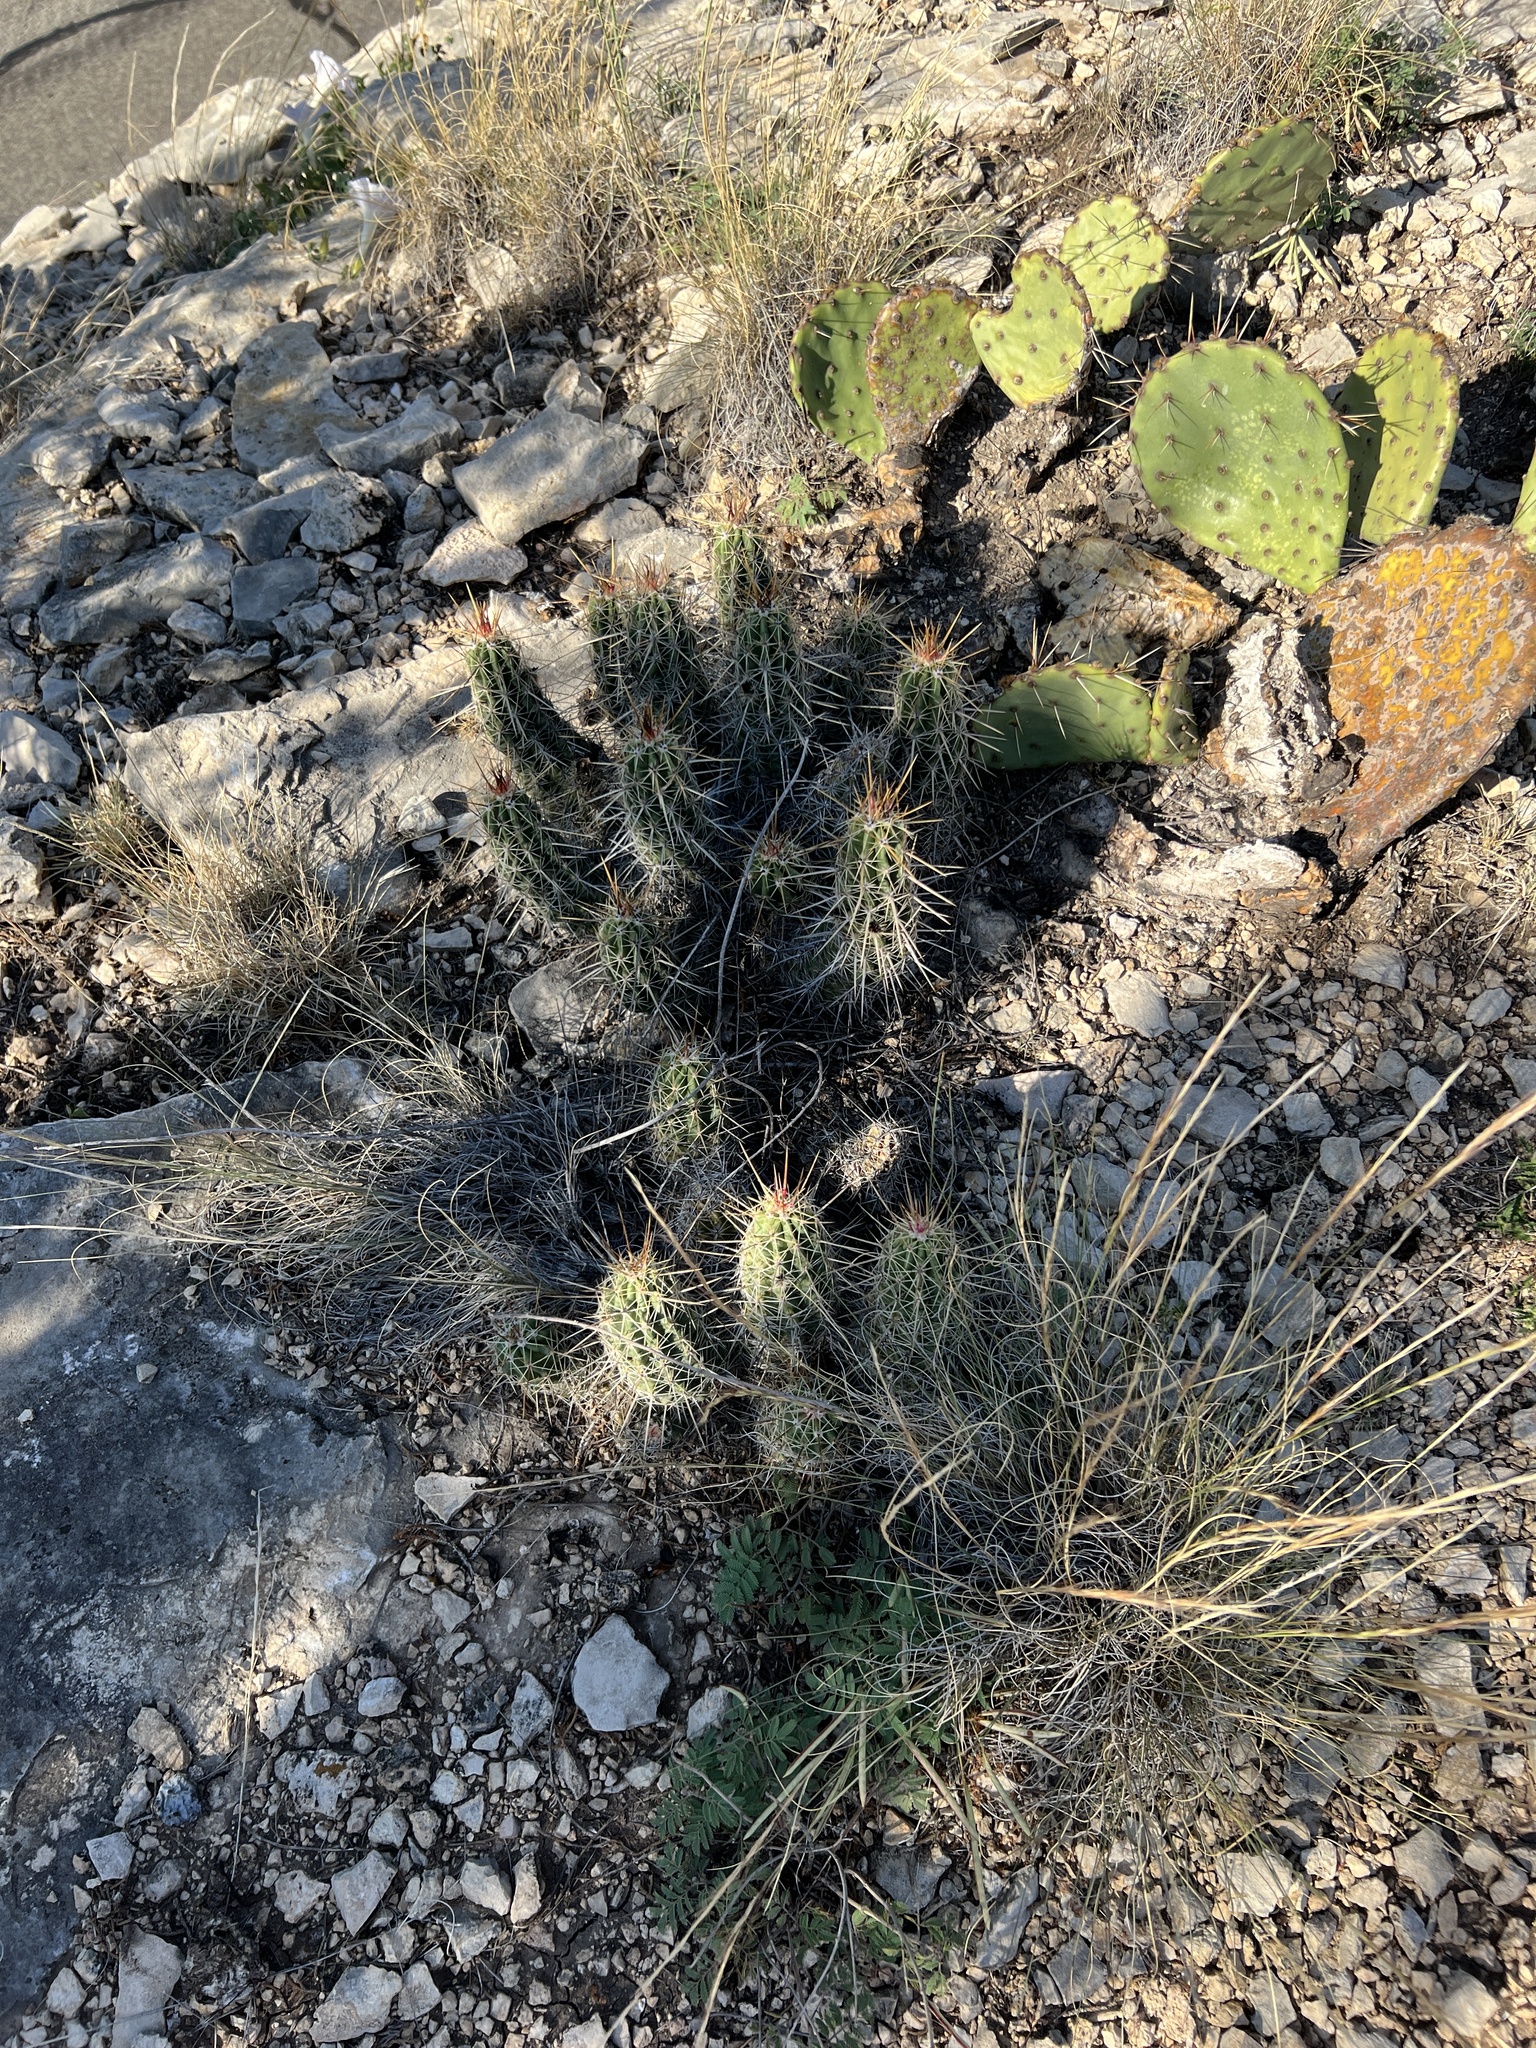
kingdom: Plantae
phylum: Tracheophyta
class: Magnoliopsida
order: Caryophyllales
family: Cactaceae
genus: Echinocereus
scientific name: Echinocereus enneacanthus
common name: Pitaya
